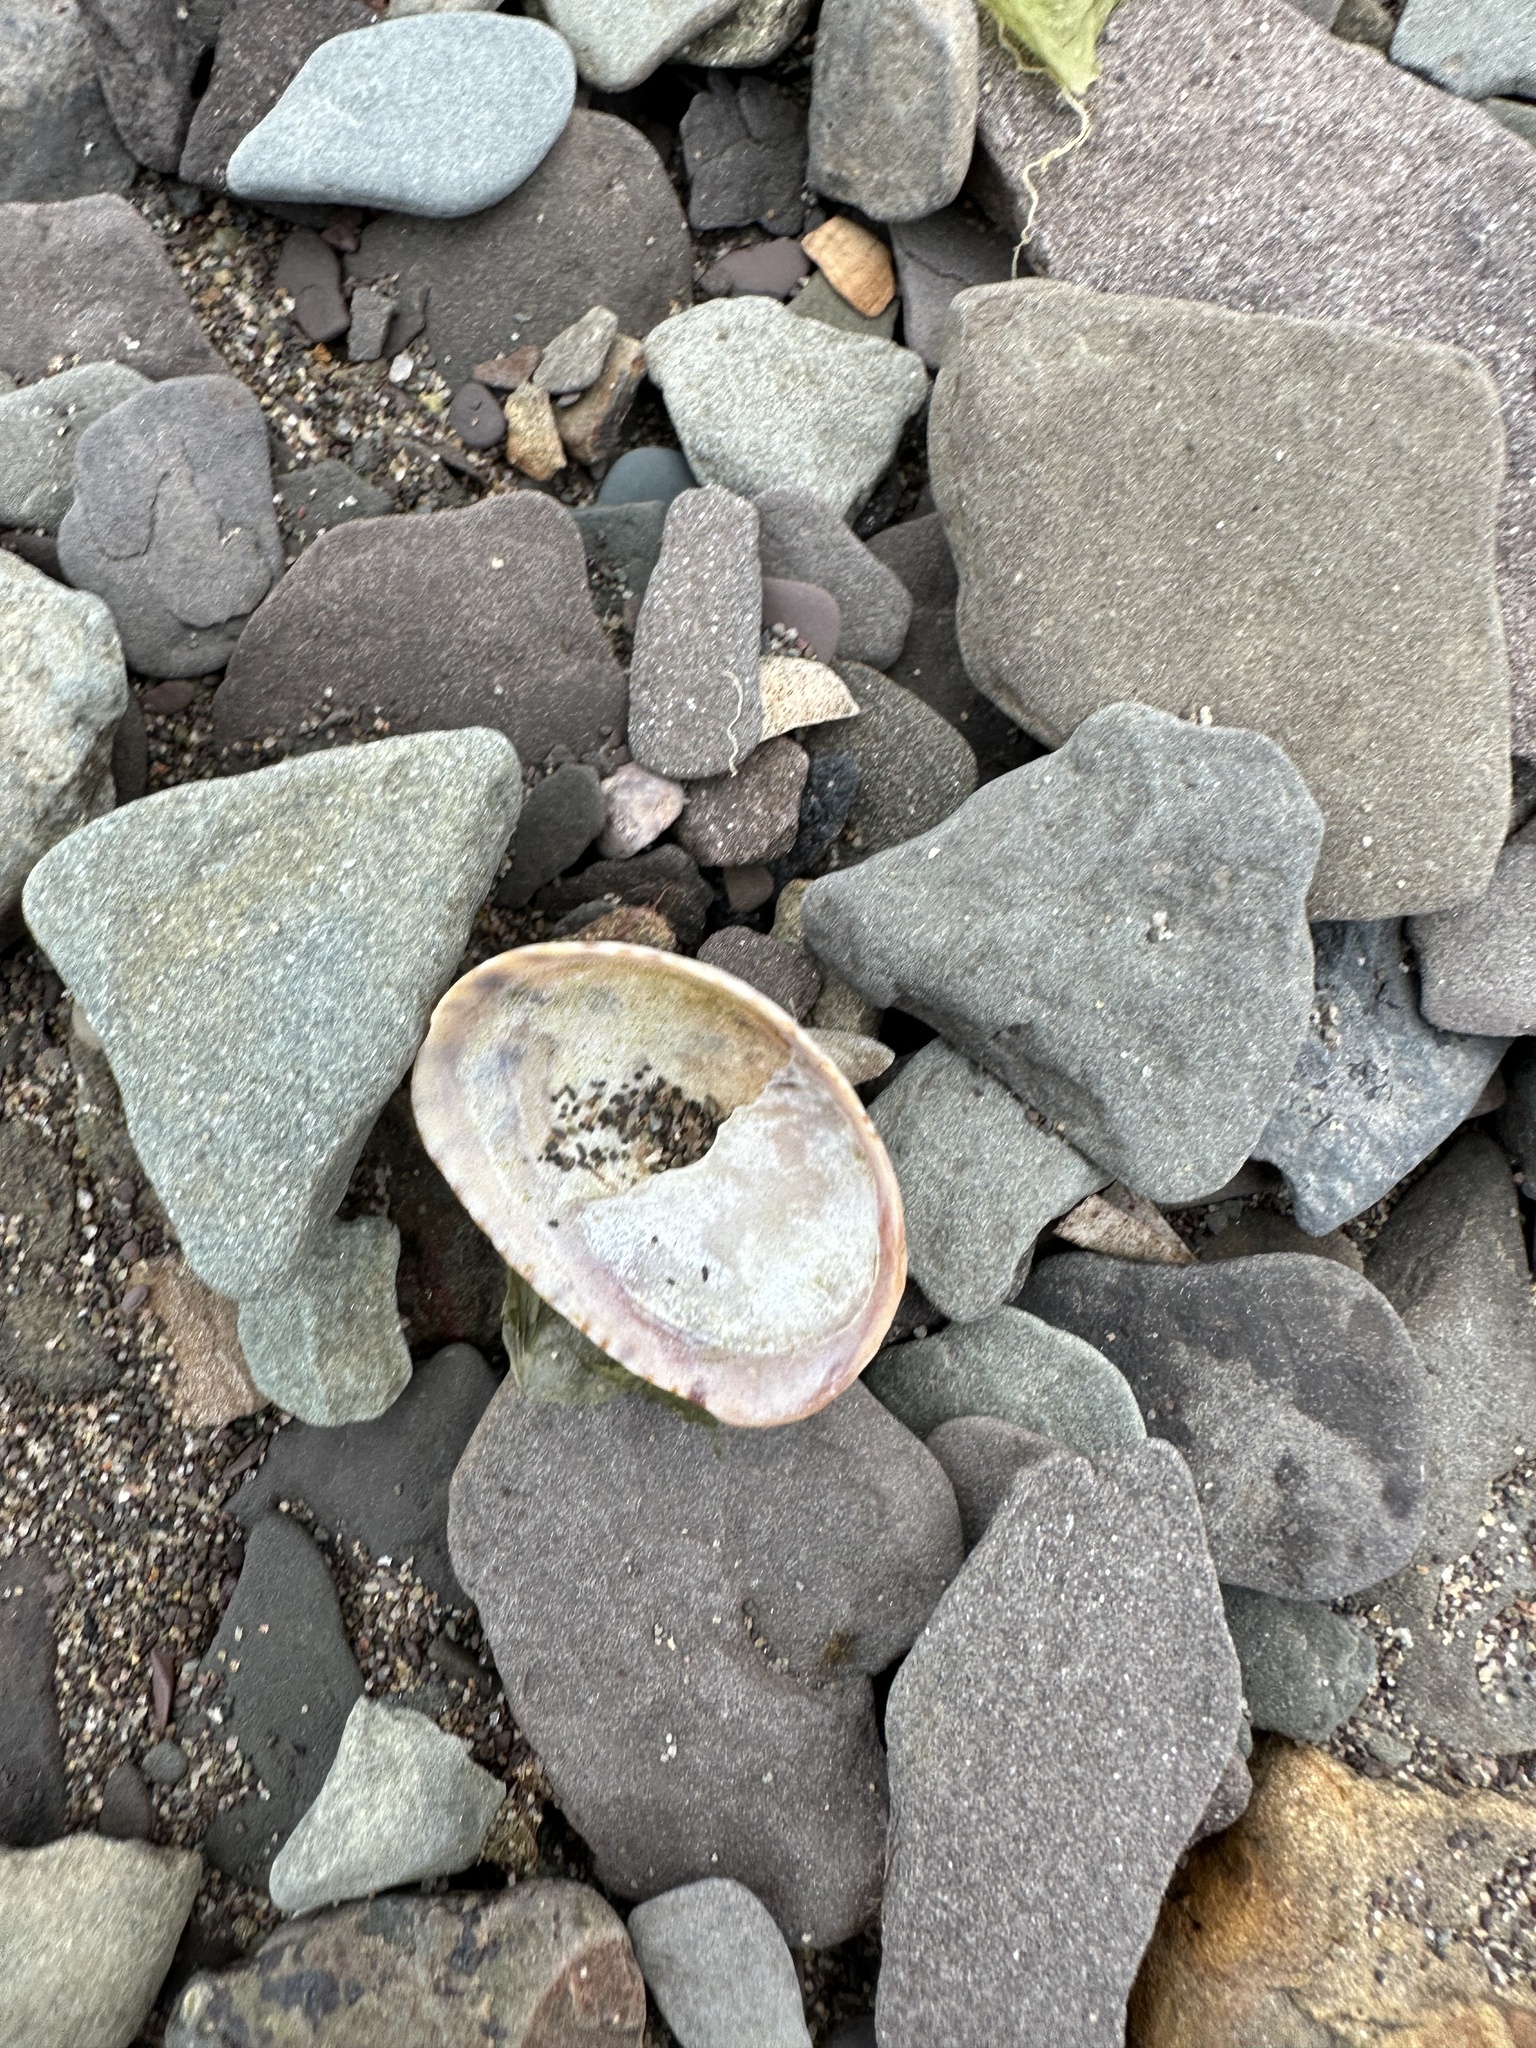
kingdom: Animalia
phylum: Mollusca
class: Gastropoda
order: Littorinimorpha
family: Calyptraeidae
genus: Crepidula
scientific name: Crepidula fornicata
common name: Slipper limpet
